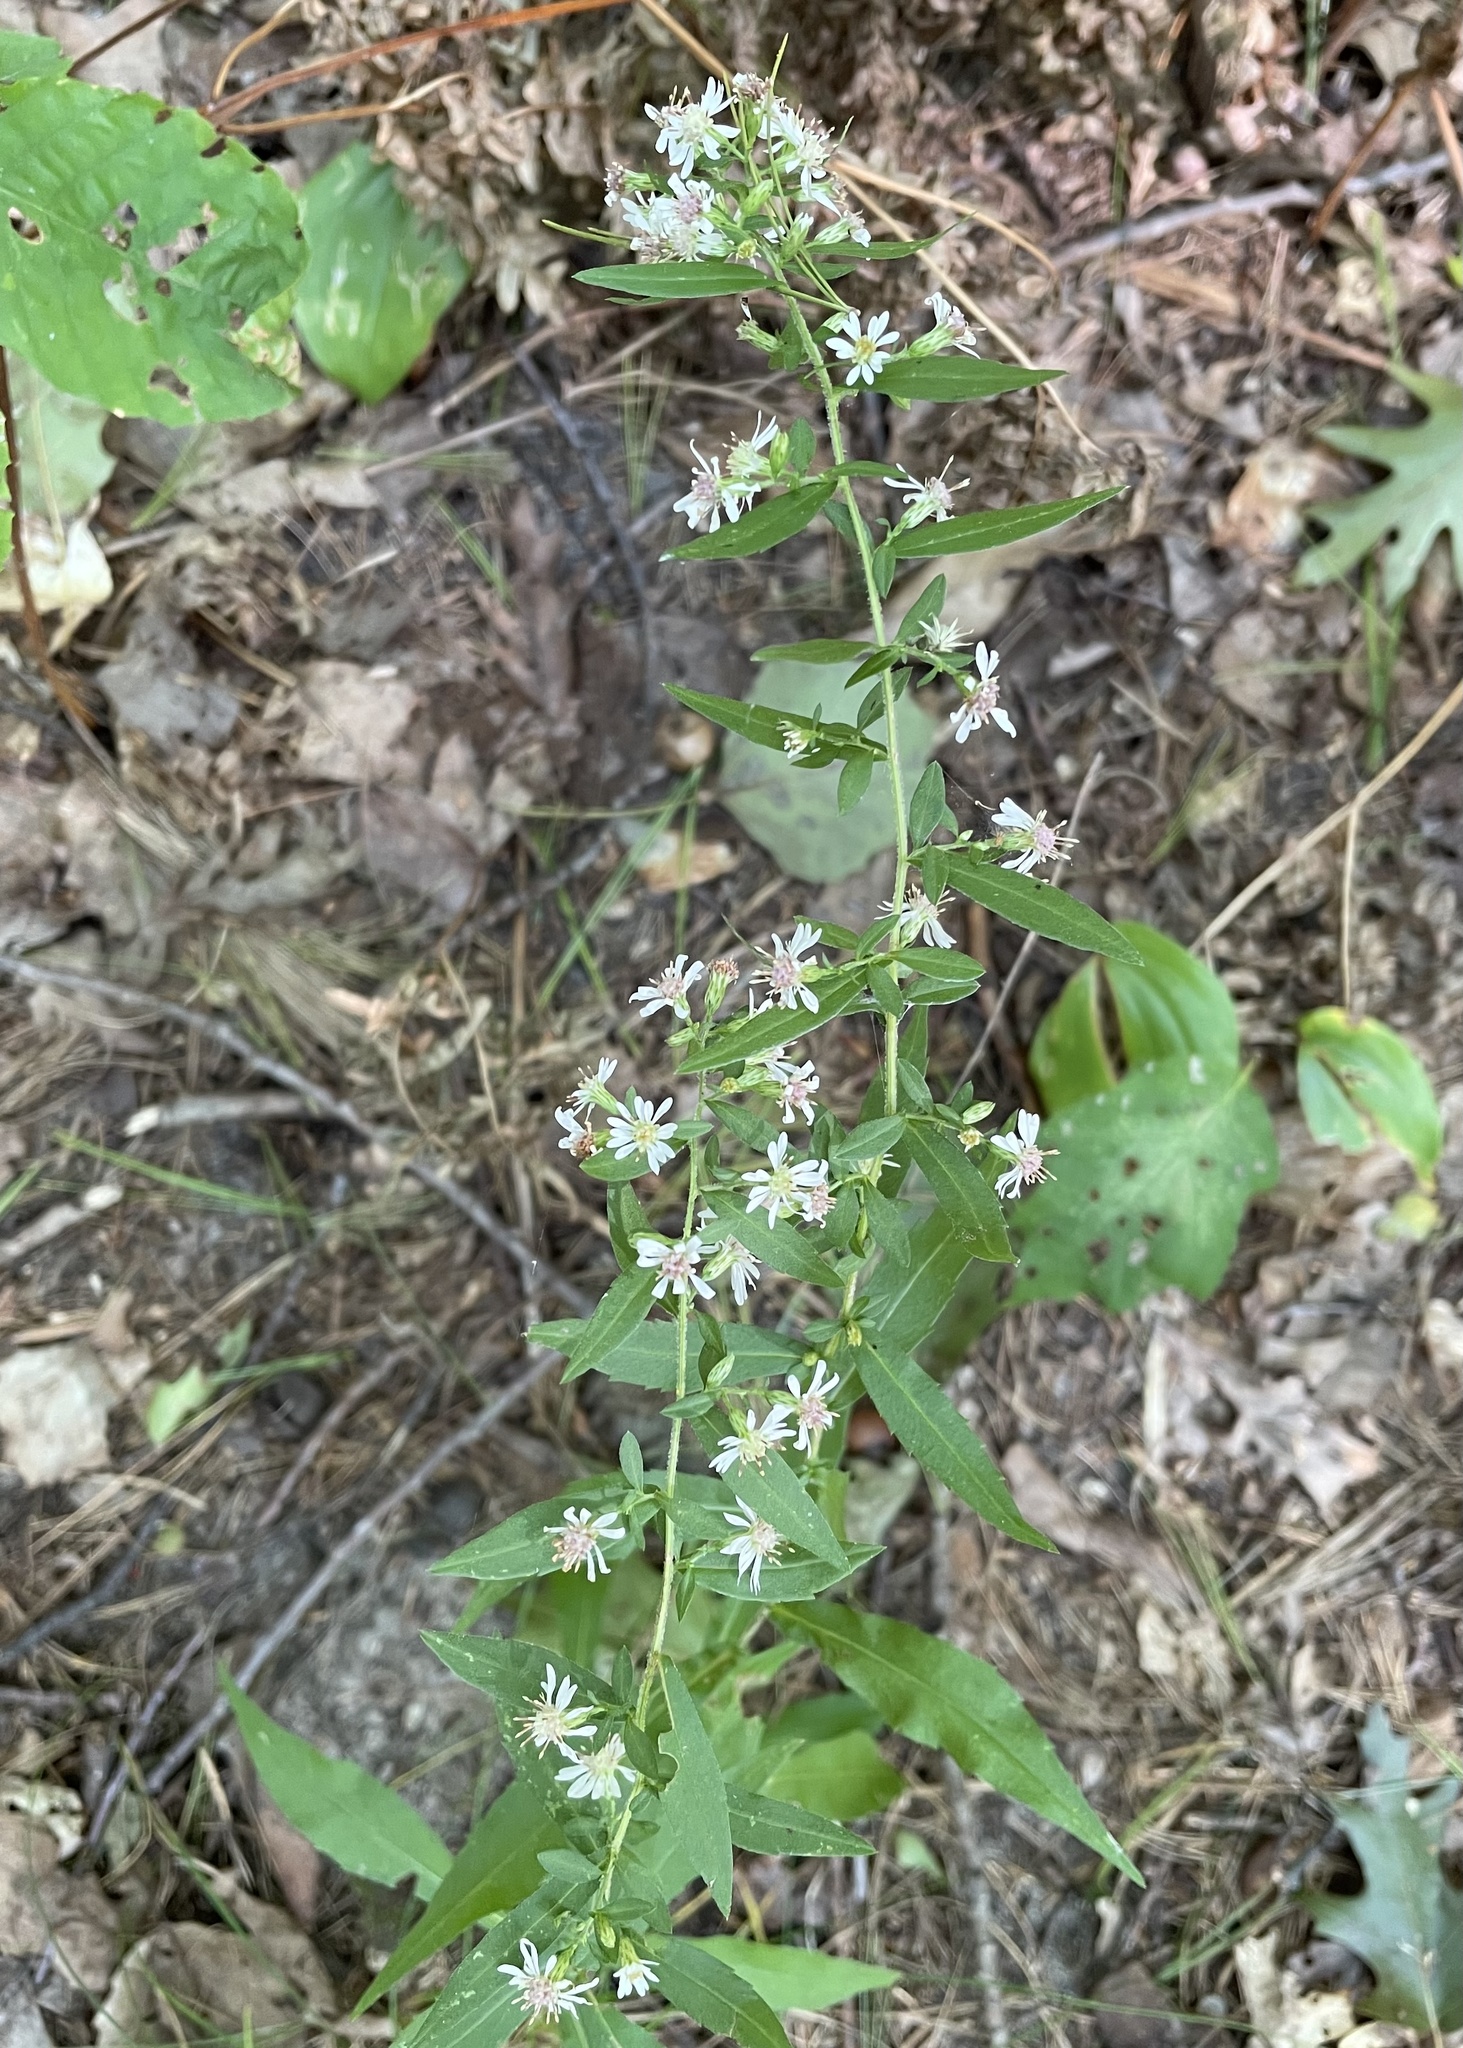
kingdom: Plantae
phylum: Tracheophyta
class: Magnoliopsida
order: Asterales
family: Asteraceae
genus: Symphyotrichum
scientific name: Symphyotrichum lateriflorum
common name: Calico aster
